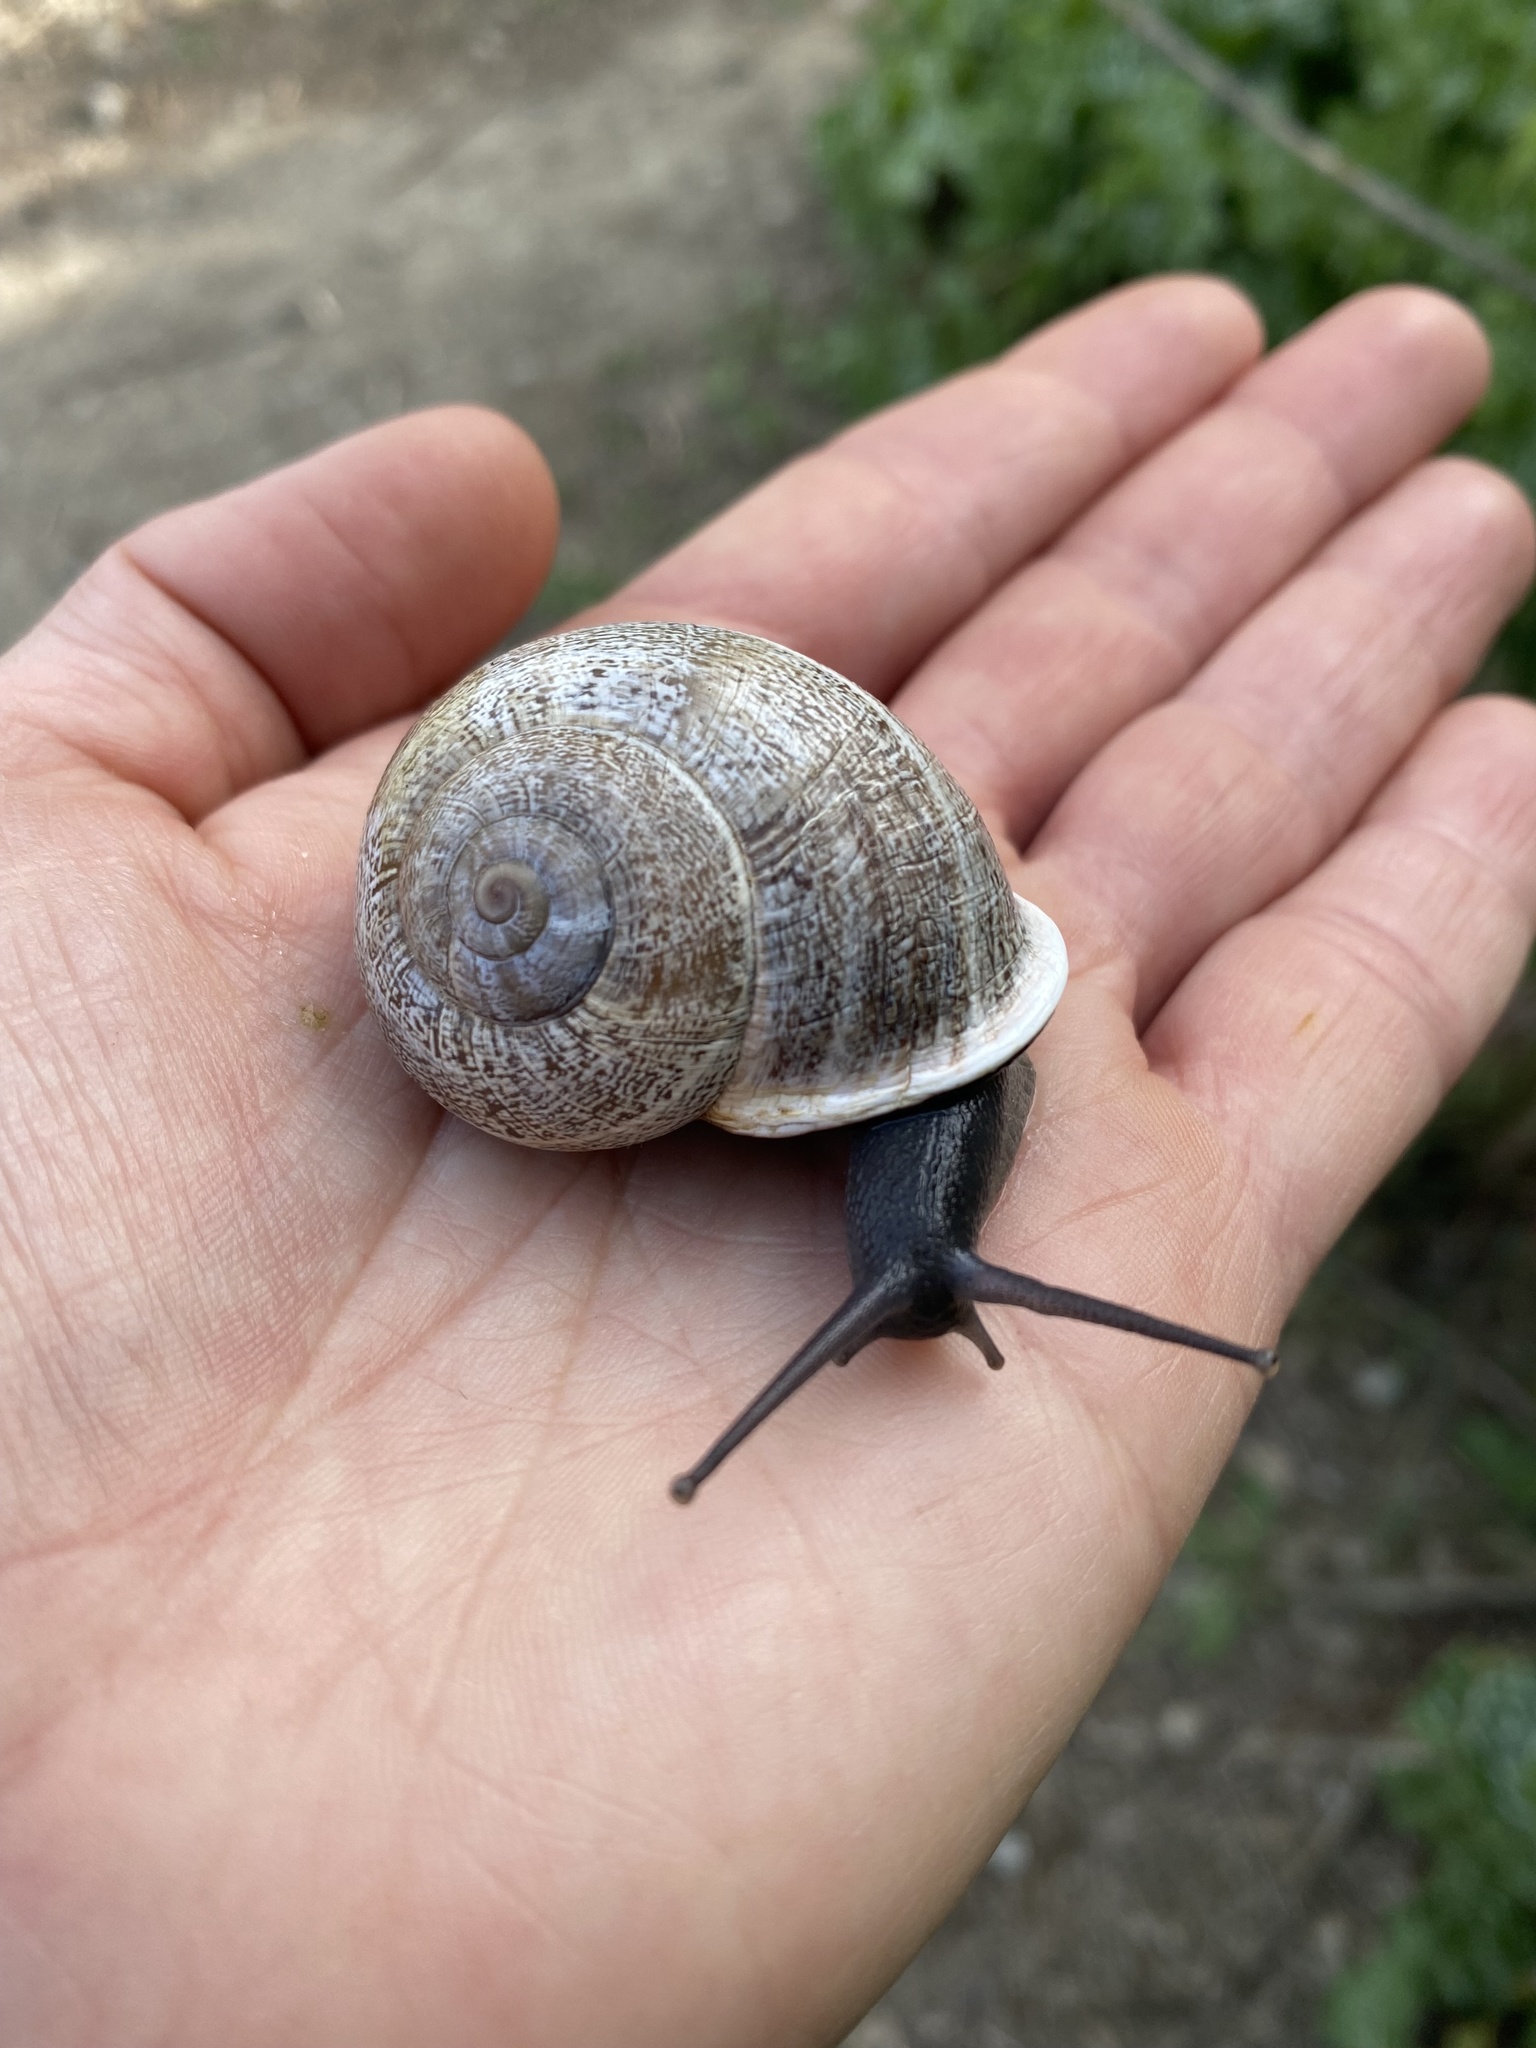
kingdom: Animalia
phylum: Mollusca
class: Gastropoda
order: Stylommatophora
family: Helicidae
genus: Otala
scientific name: Otala lactea
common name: Milk snail
